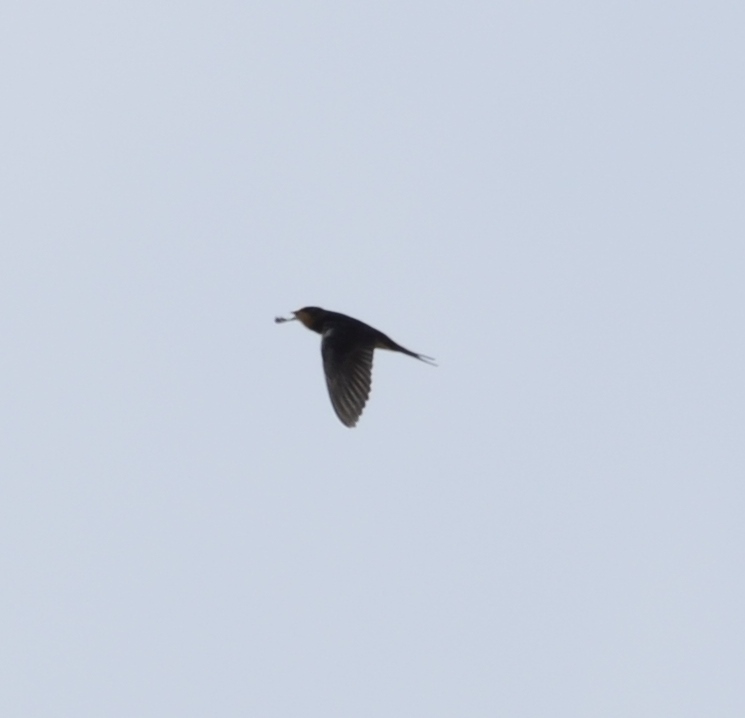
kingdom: Animalia
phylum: Chordata
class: Aves
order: Passeriformes
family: Hirundinidae
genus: Hirundo
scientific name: Hirundo rustica
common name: Barn swallow
